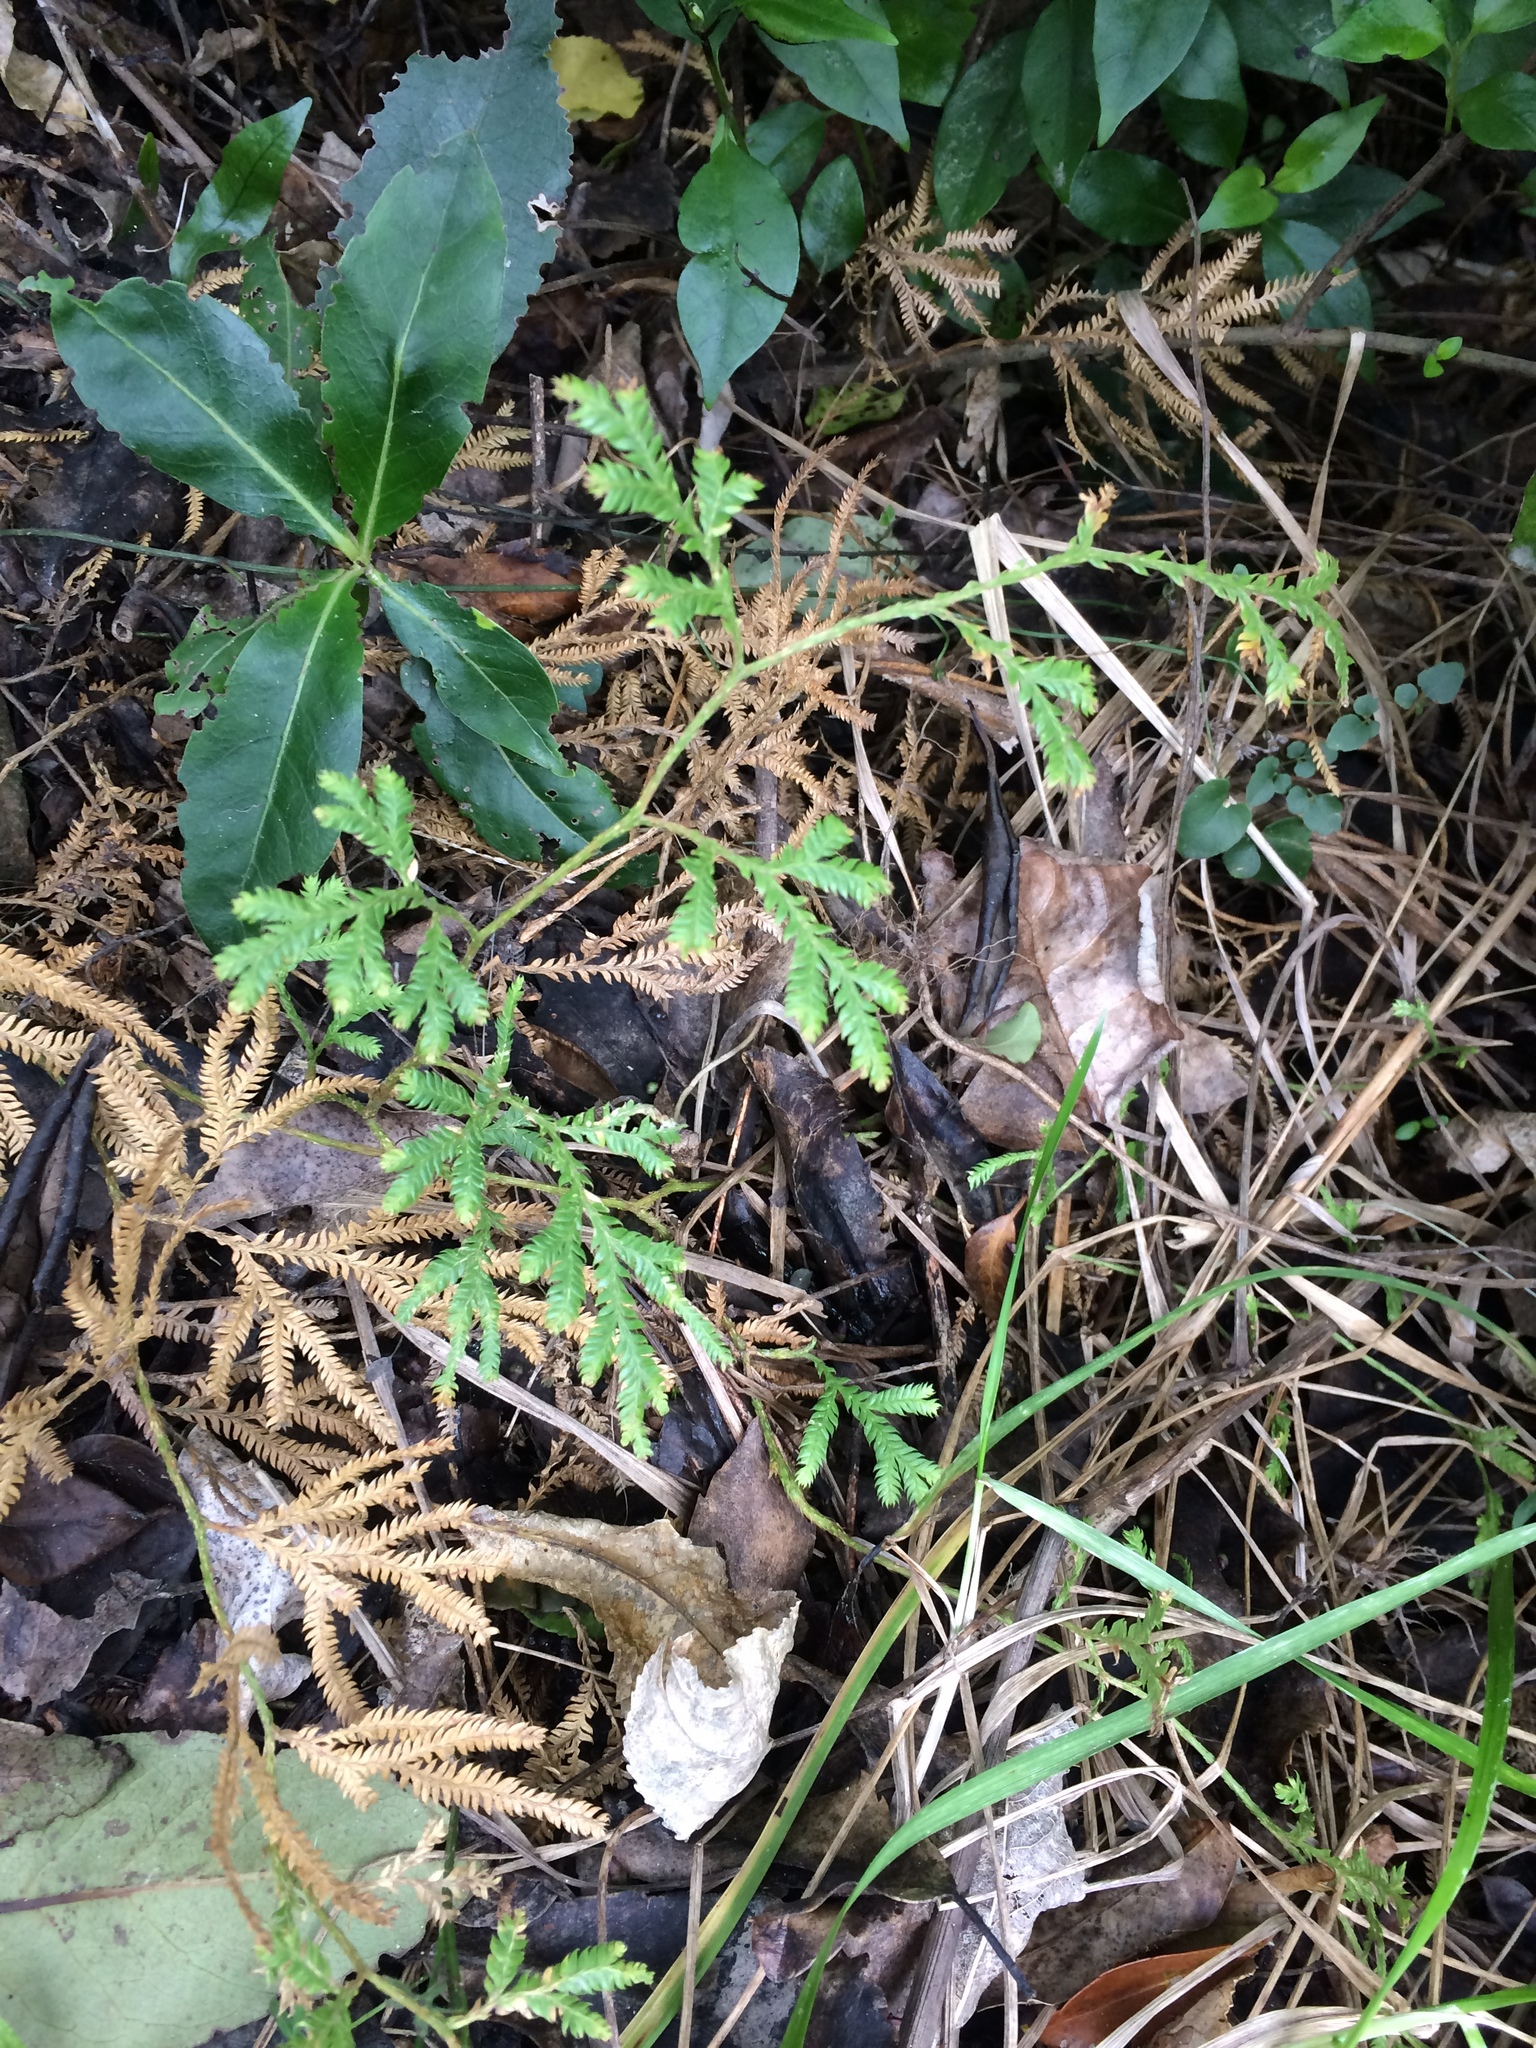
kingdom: Plantae
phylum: Tracheophyta
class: Lycopodiopsida
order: Lycopodiales
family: Lycopodiaceae
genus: Lycopodium
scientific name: Lycopodium volubile
